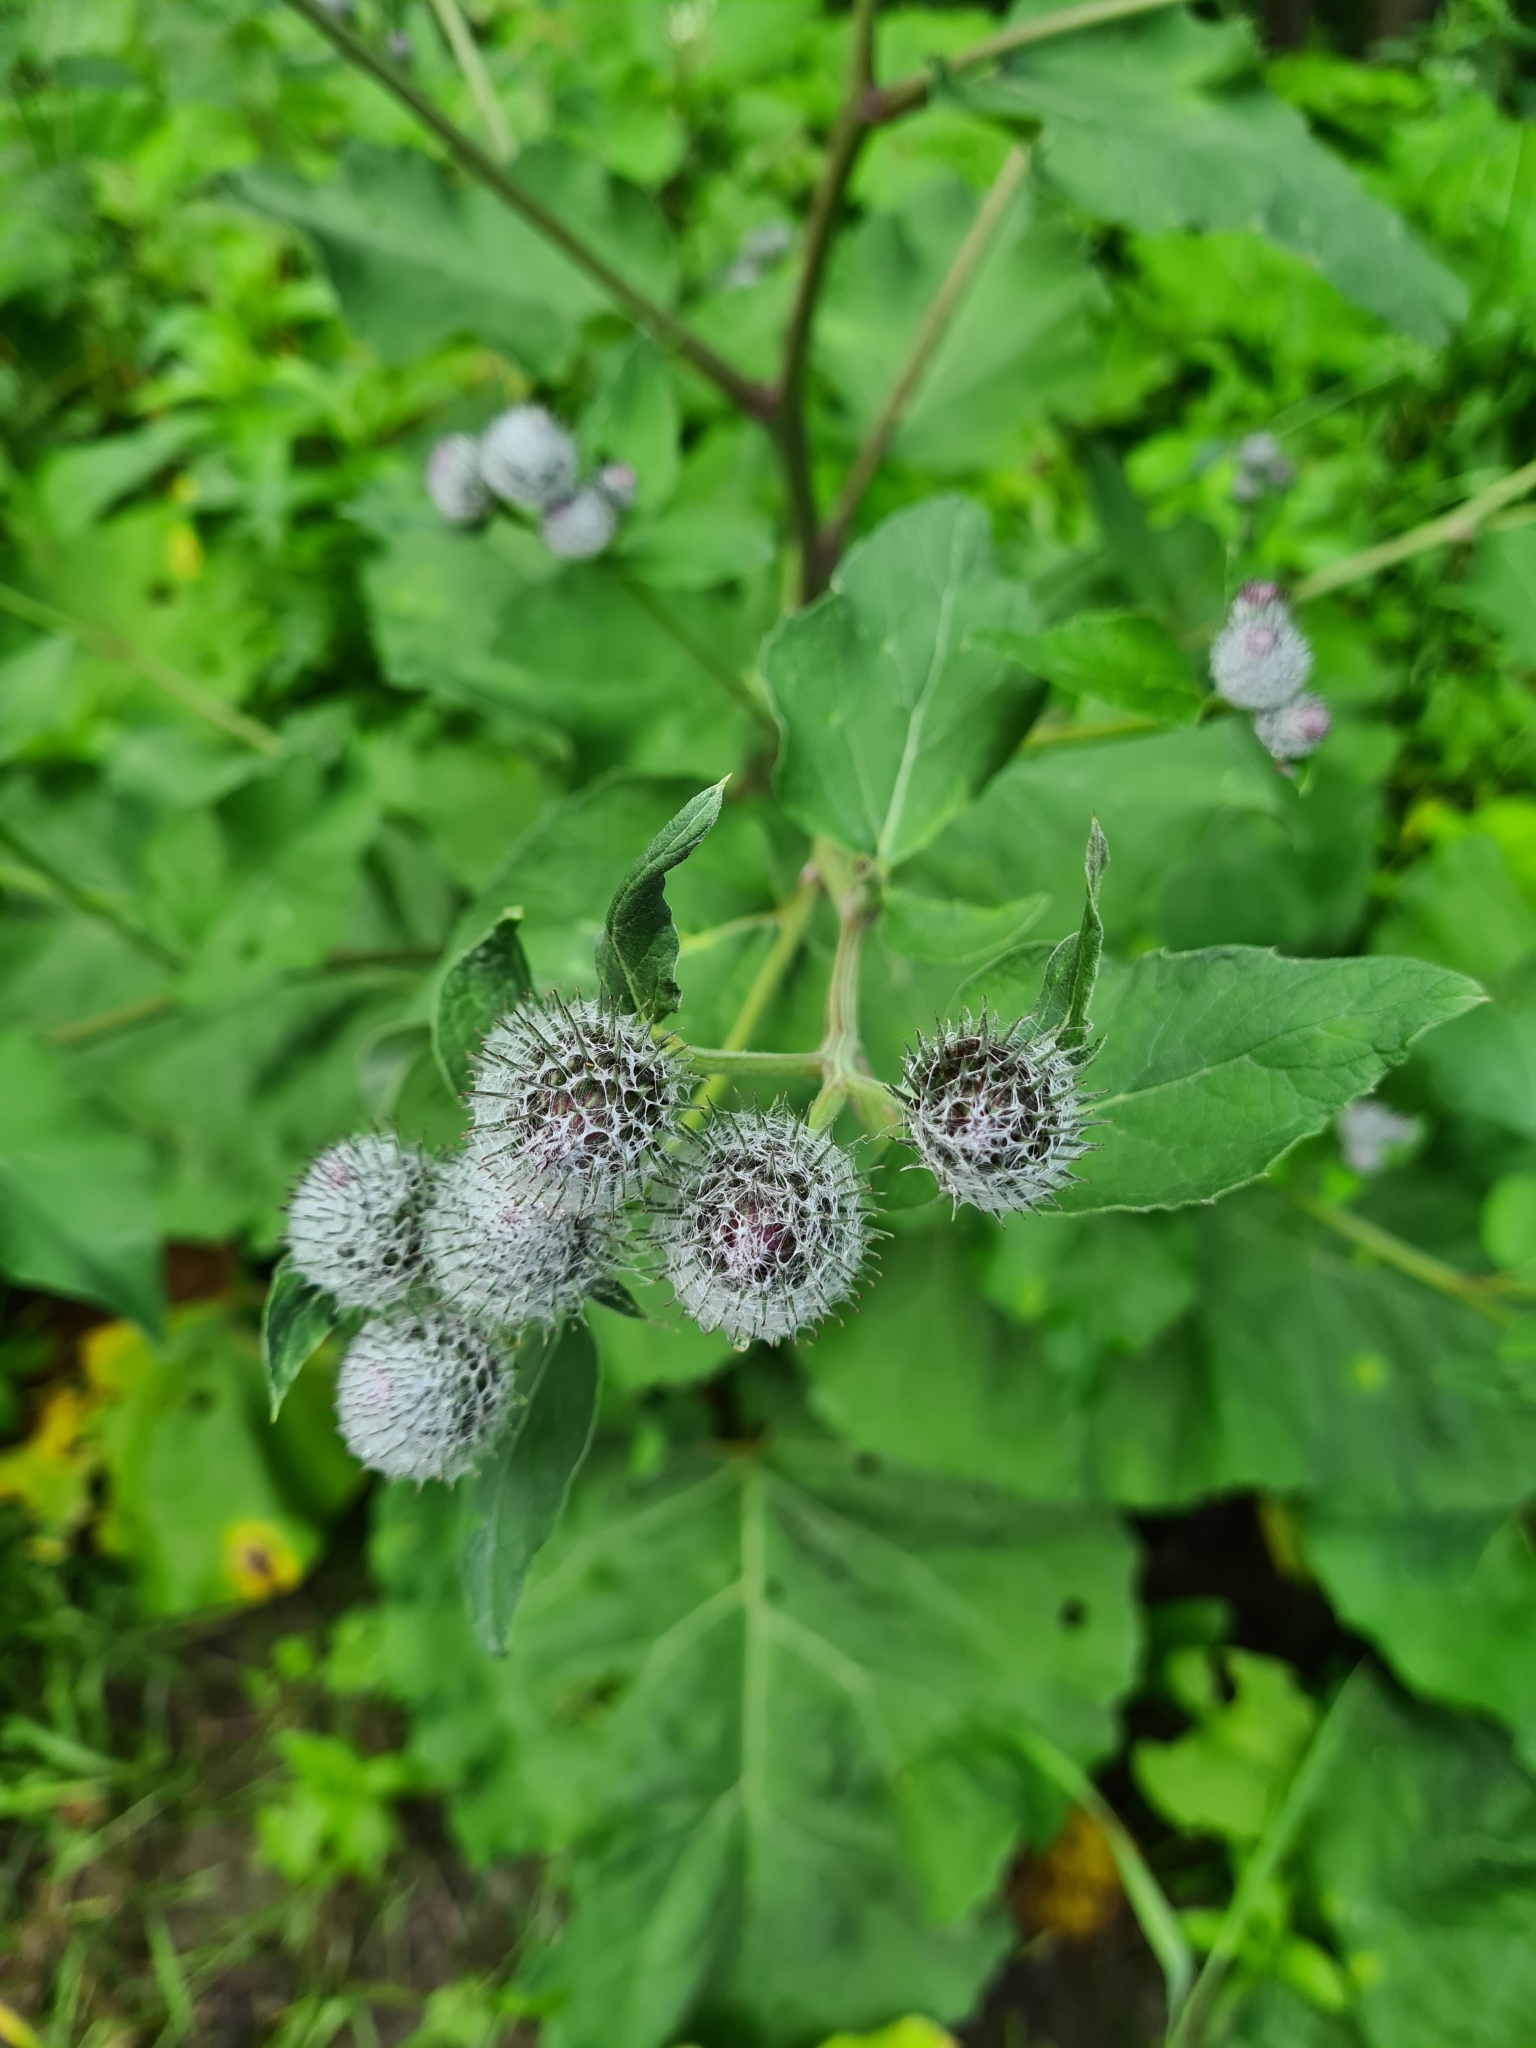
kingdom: Plantae
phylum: Tracheophyta
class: Magnoliopsida
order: Asterales
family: Asteraceae
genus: Arctium
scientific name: Arctium tomentosum
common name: Woolly burdock
